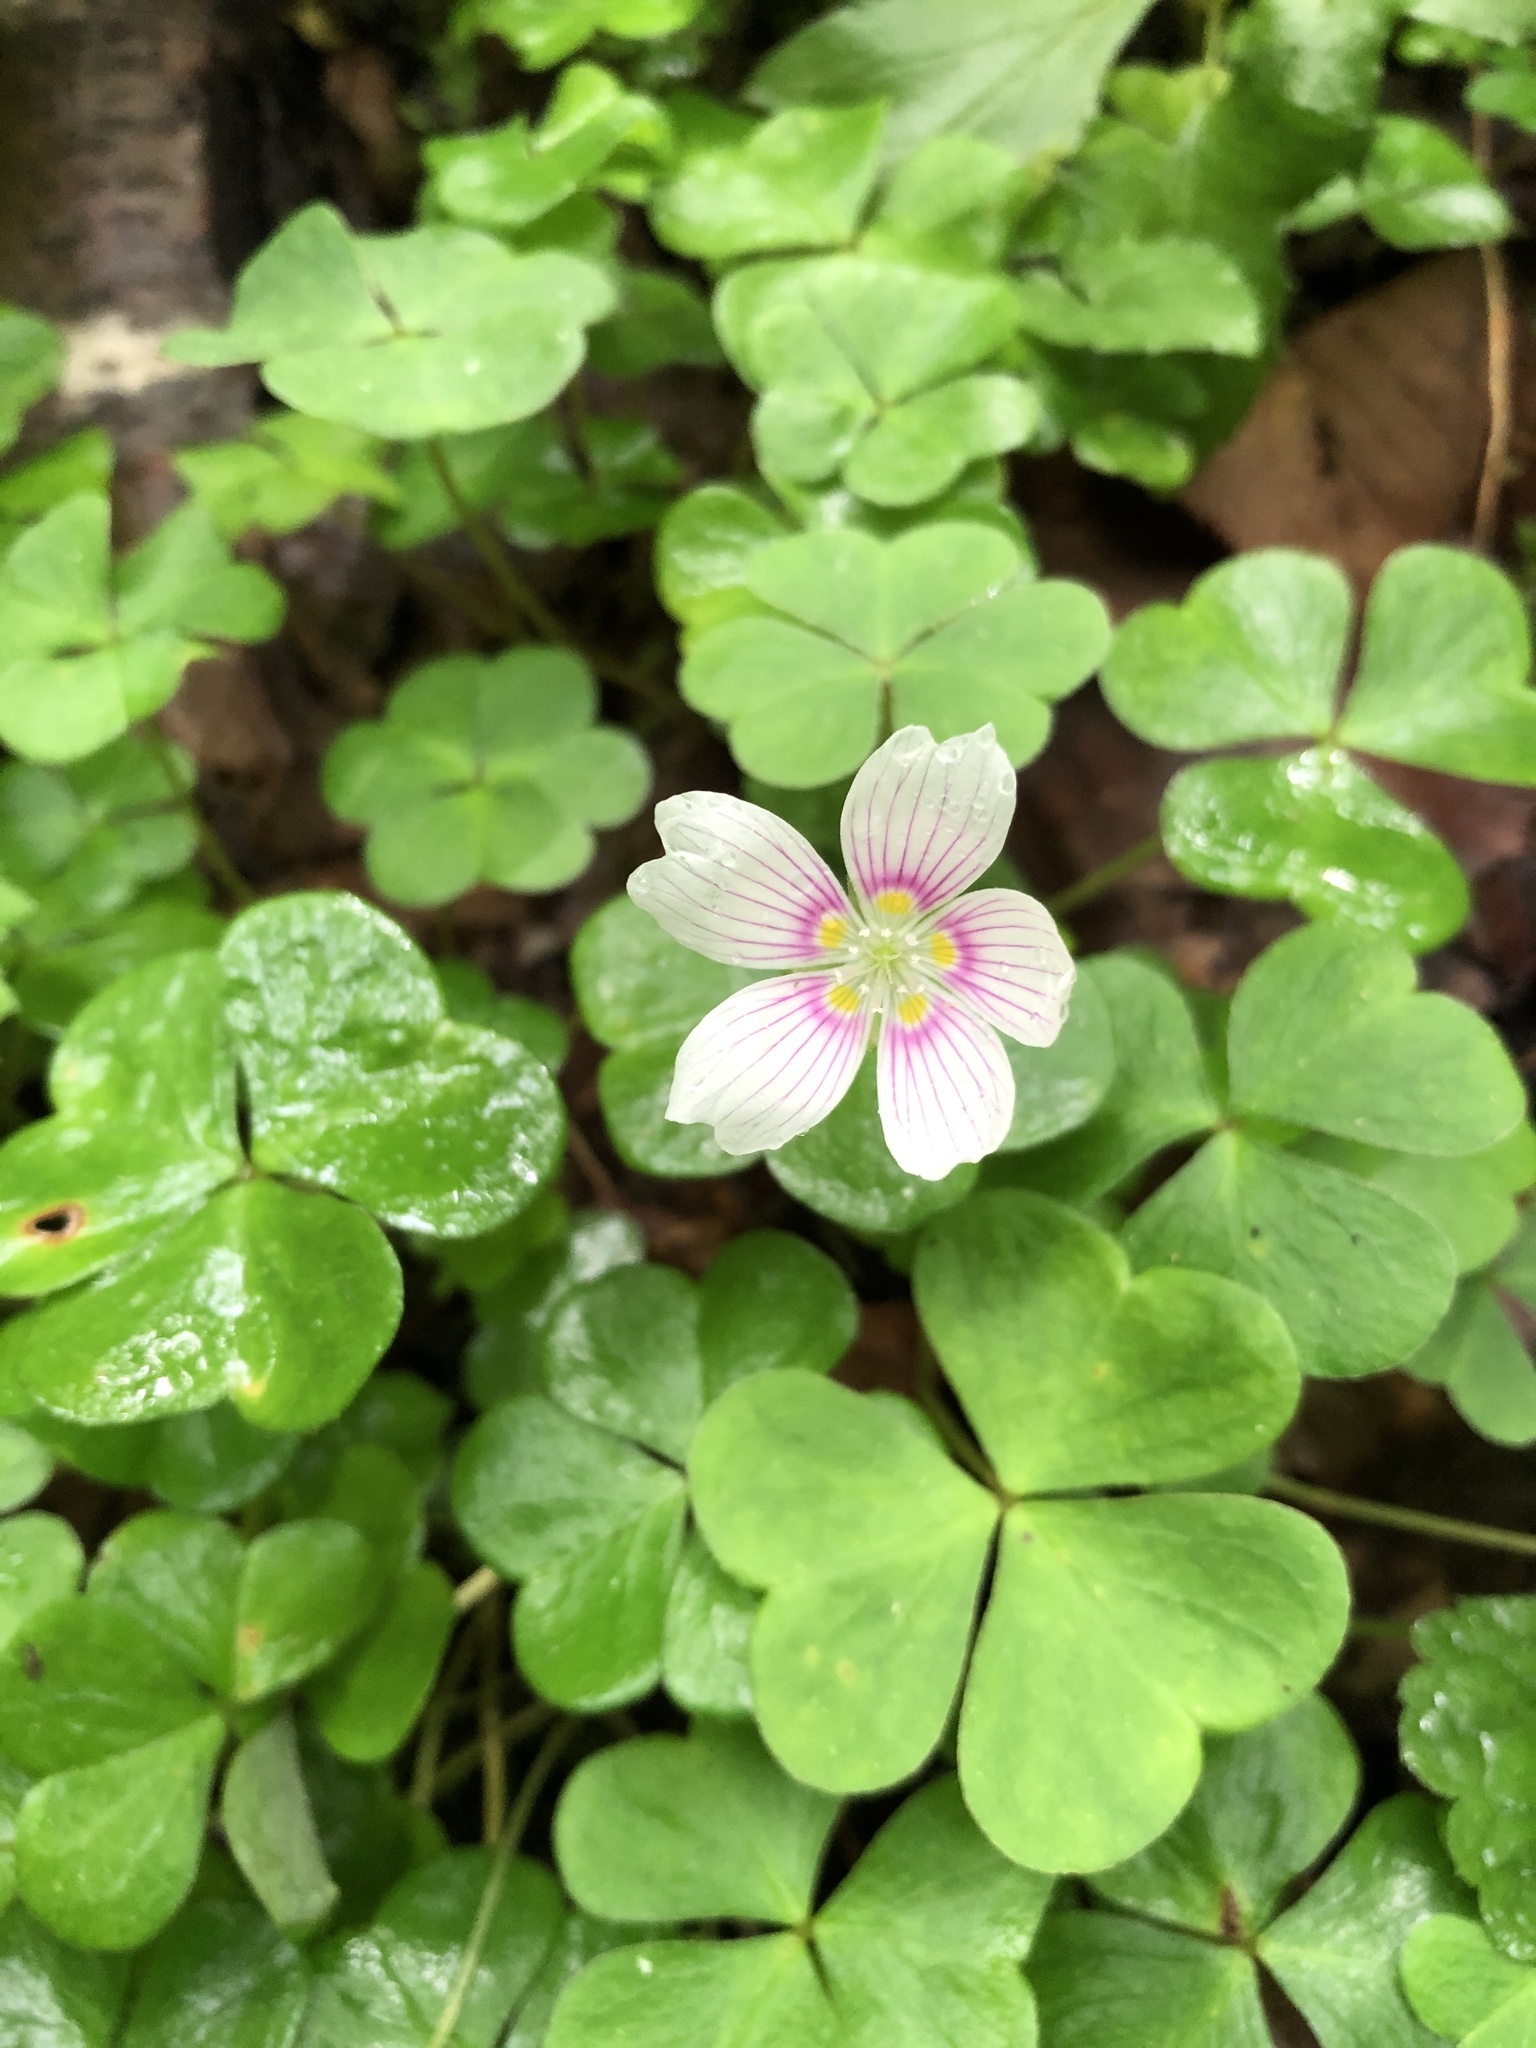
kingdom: Plantae
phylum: Tracheophyta
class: Magnoliopsida
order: Oxalidales
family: Oxalidaceae
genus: Oxalis
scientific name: Oxalis montana
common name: American wood-sorrel
